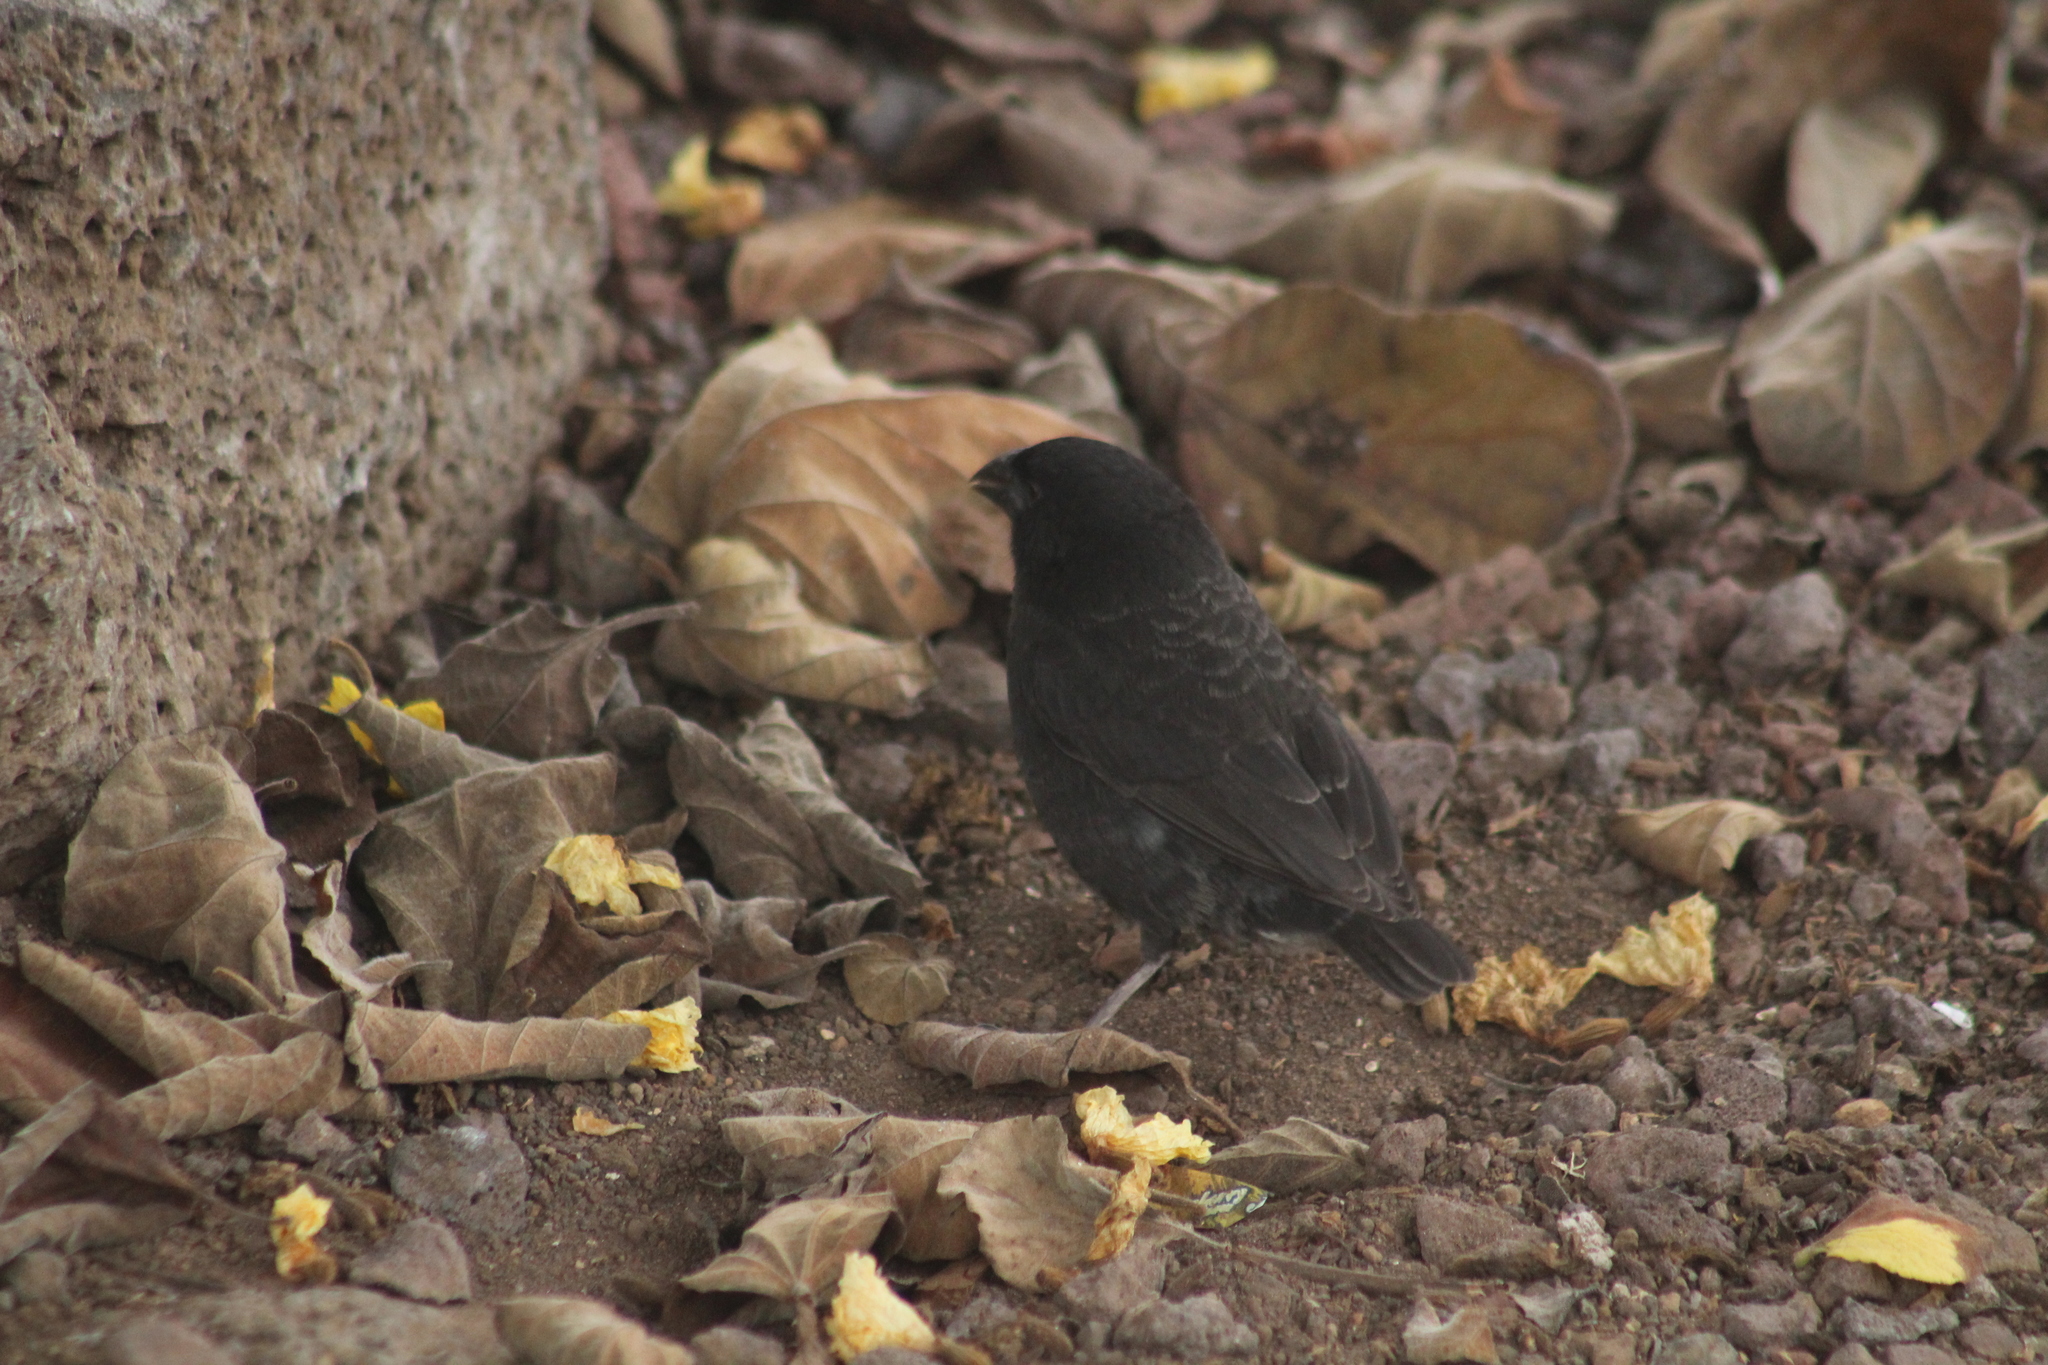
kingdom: Animalia
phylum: Chordata
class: Aves
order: Passeriformes
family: Thraupidae
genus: Geospiza
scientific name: Geospiza fortis
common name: Medium ground finch
